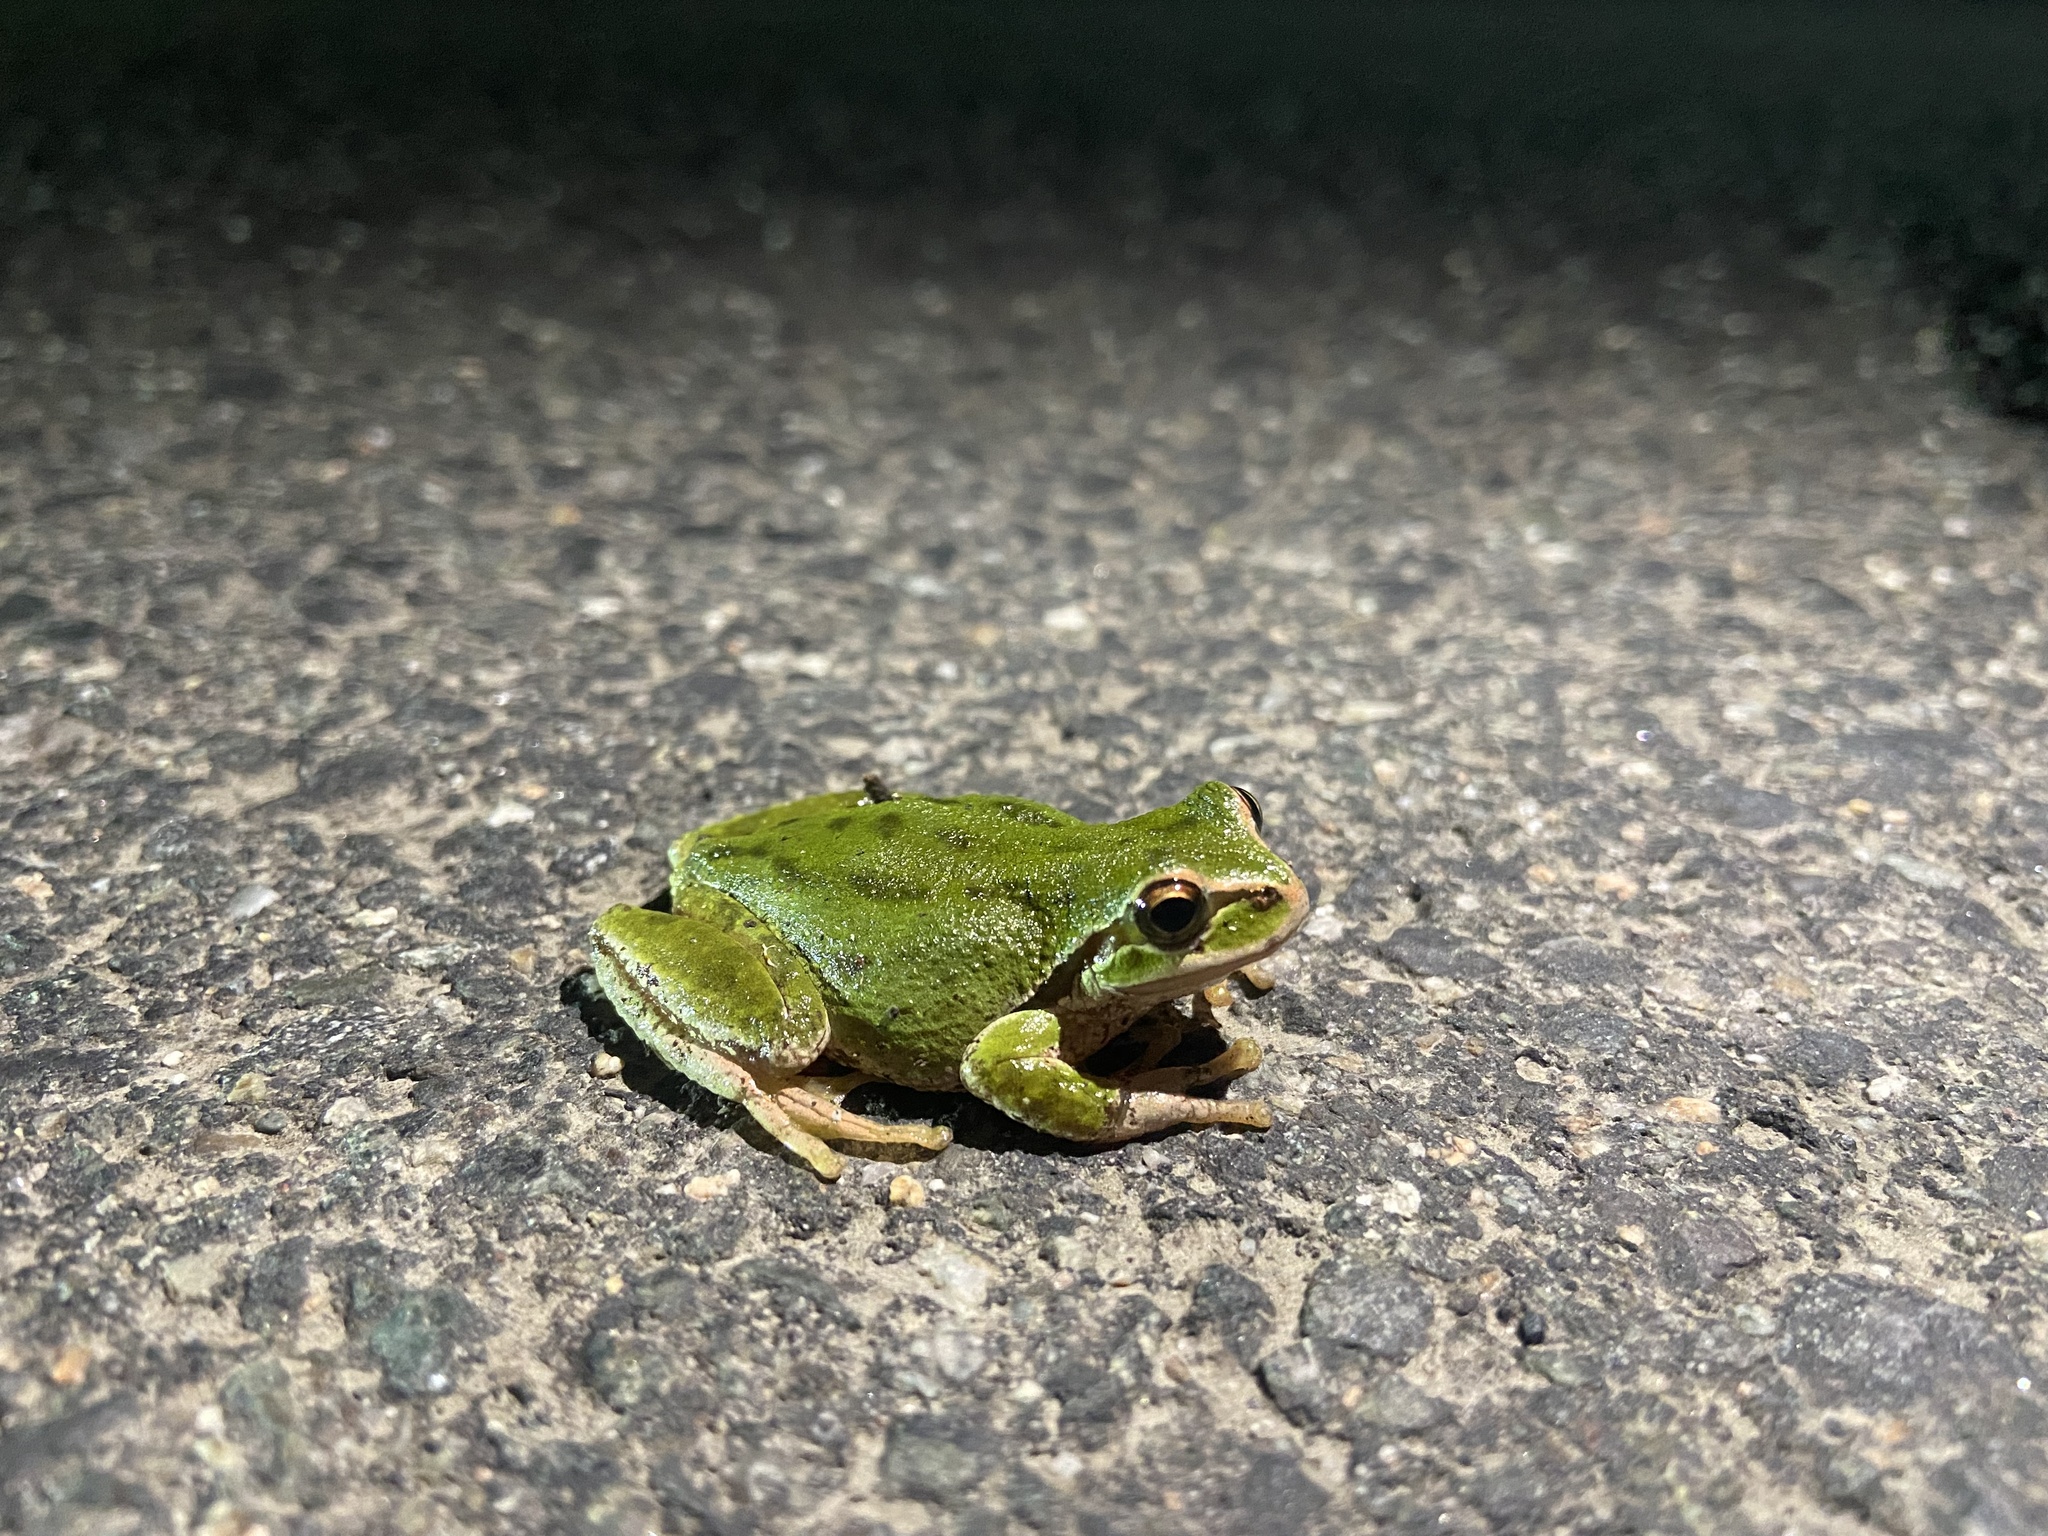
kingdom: Animalia
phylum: Chordata
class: Amphibia
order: Anura
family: Hylidae
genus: Pseudacris
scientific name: Pseudacris regilla
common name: Pacific chorus frog
